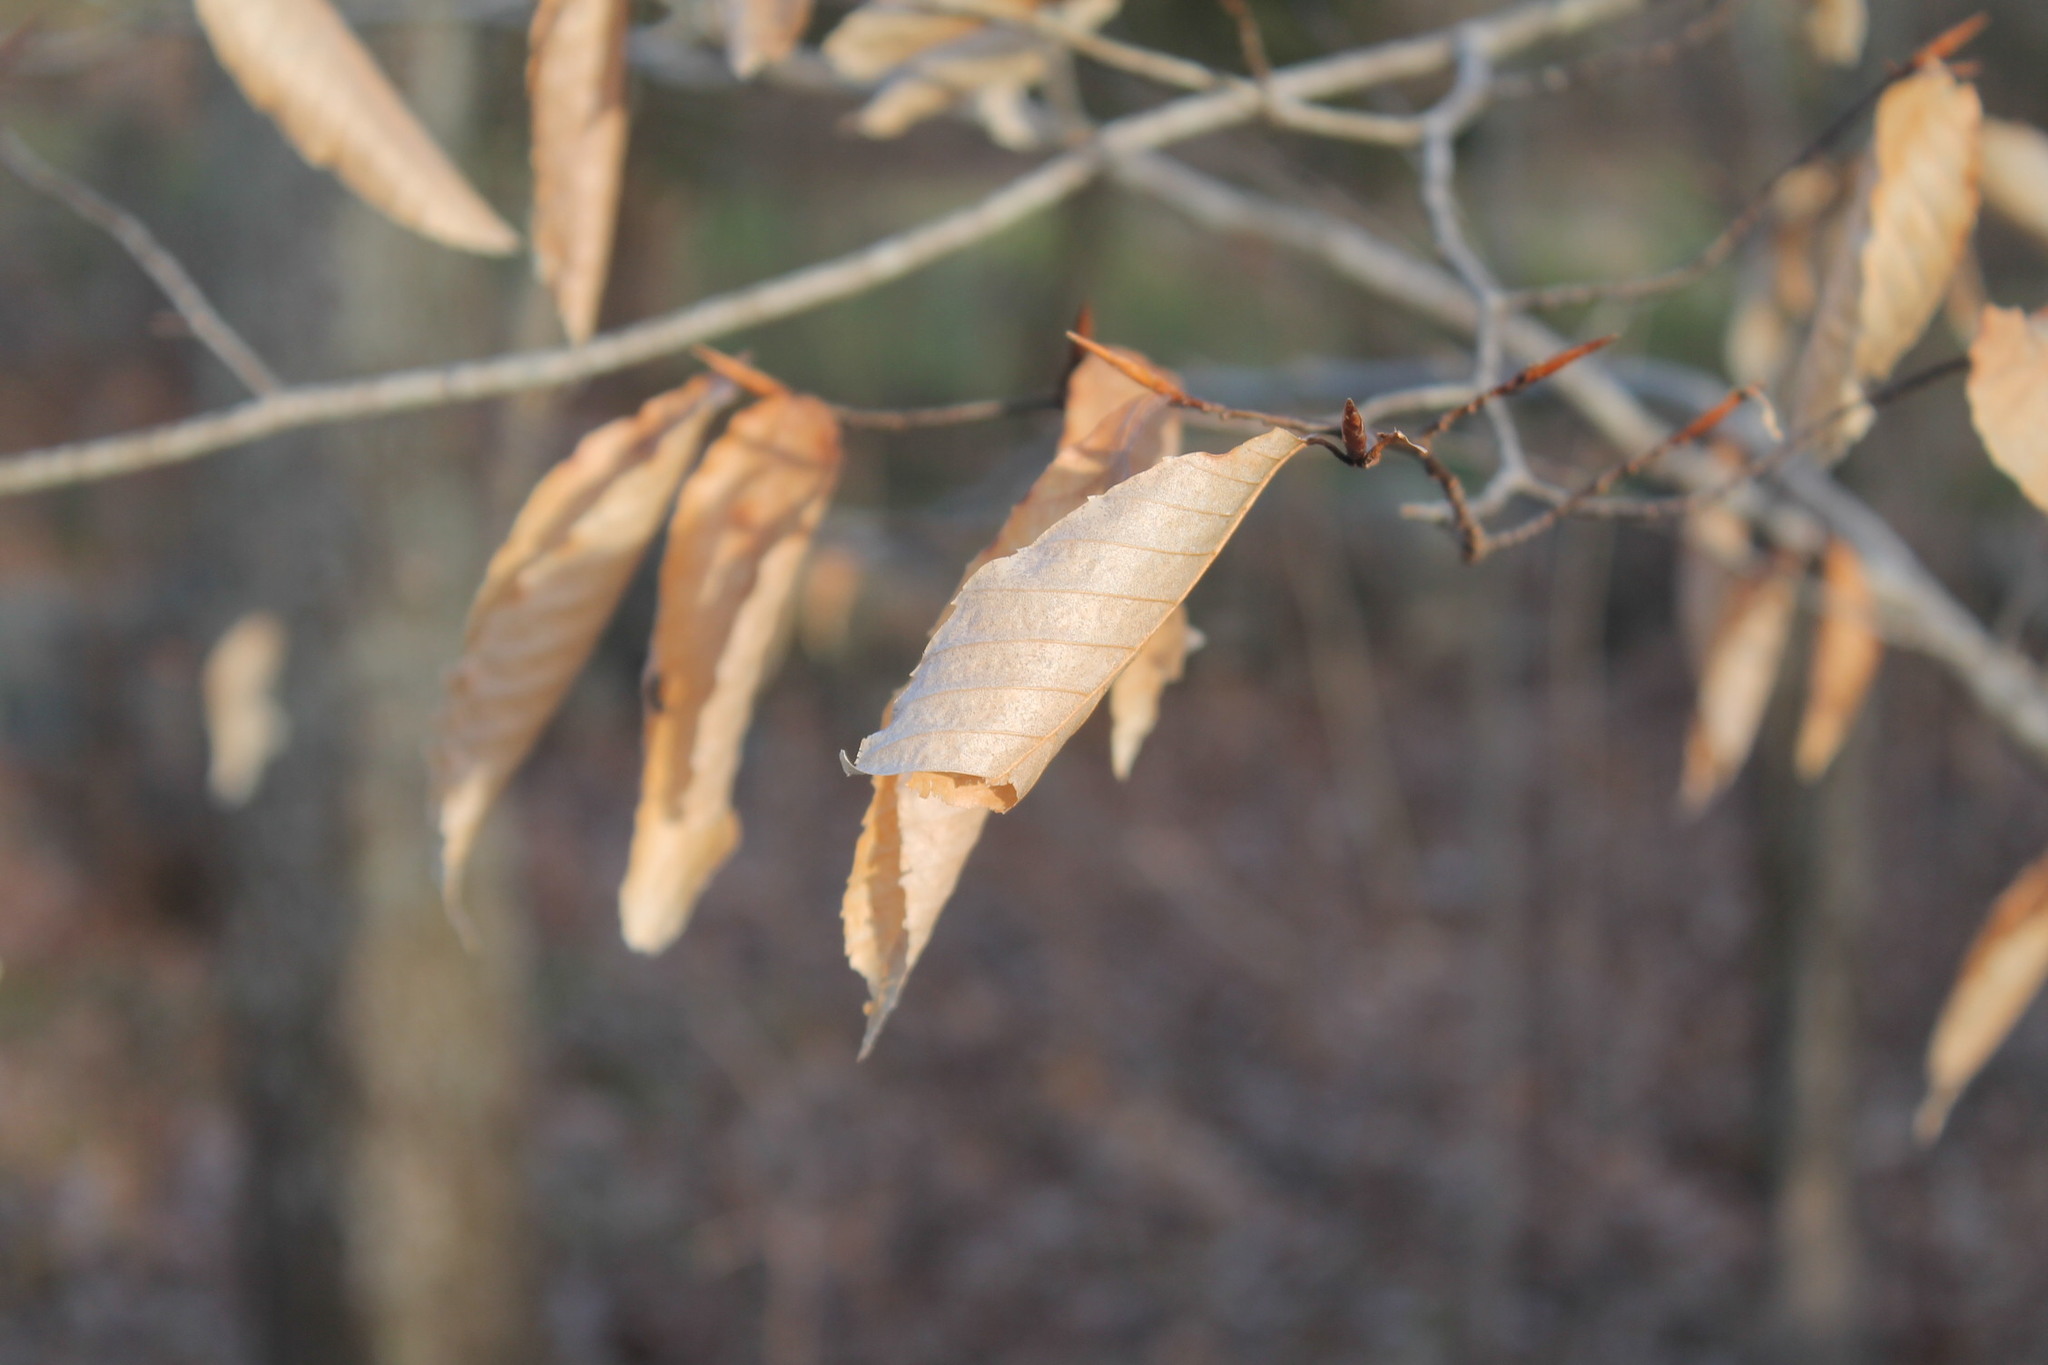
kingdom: Plantae
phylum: Tracheophyta
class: Magnoliopsida
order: Fagales
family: Fagaceae
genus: Fagus
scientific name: Fagus grandifolia
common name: American beech
